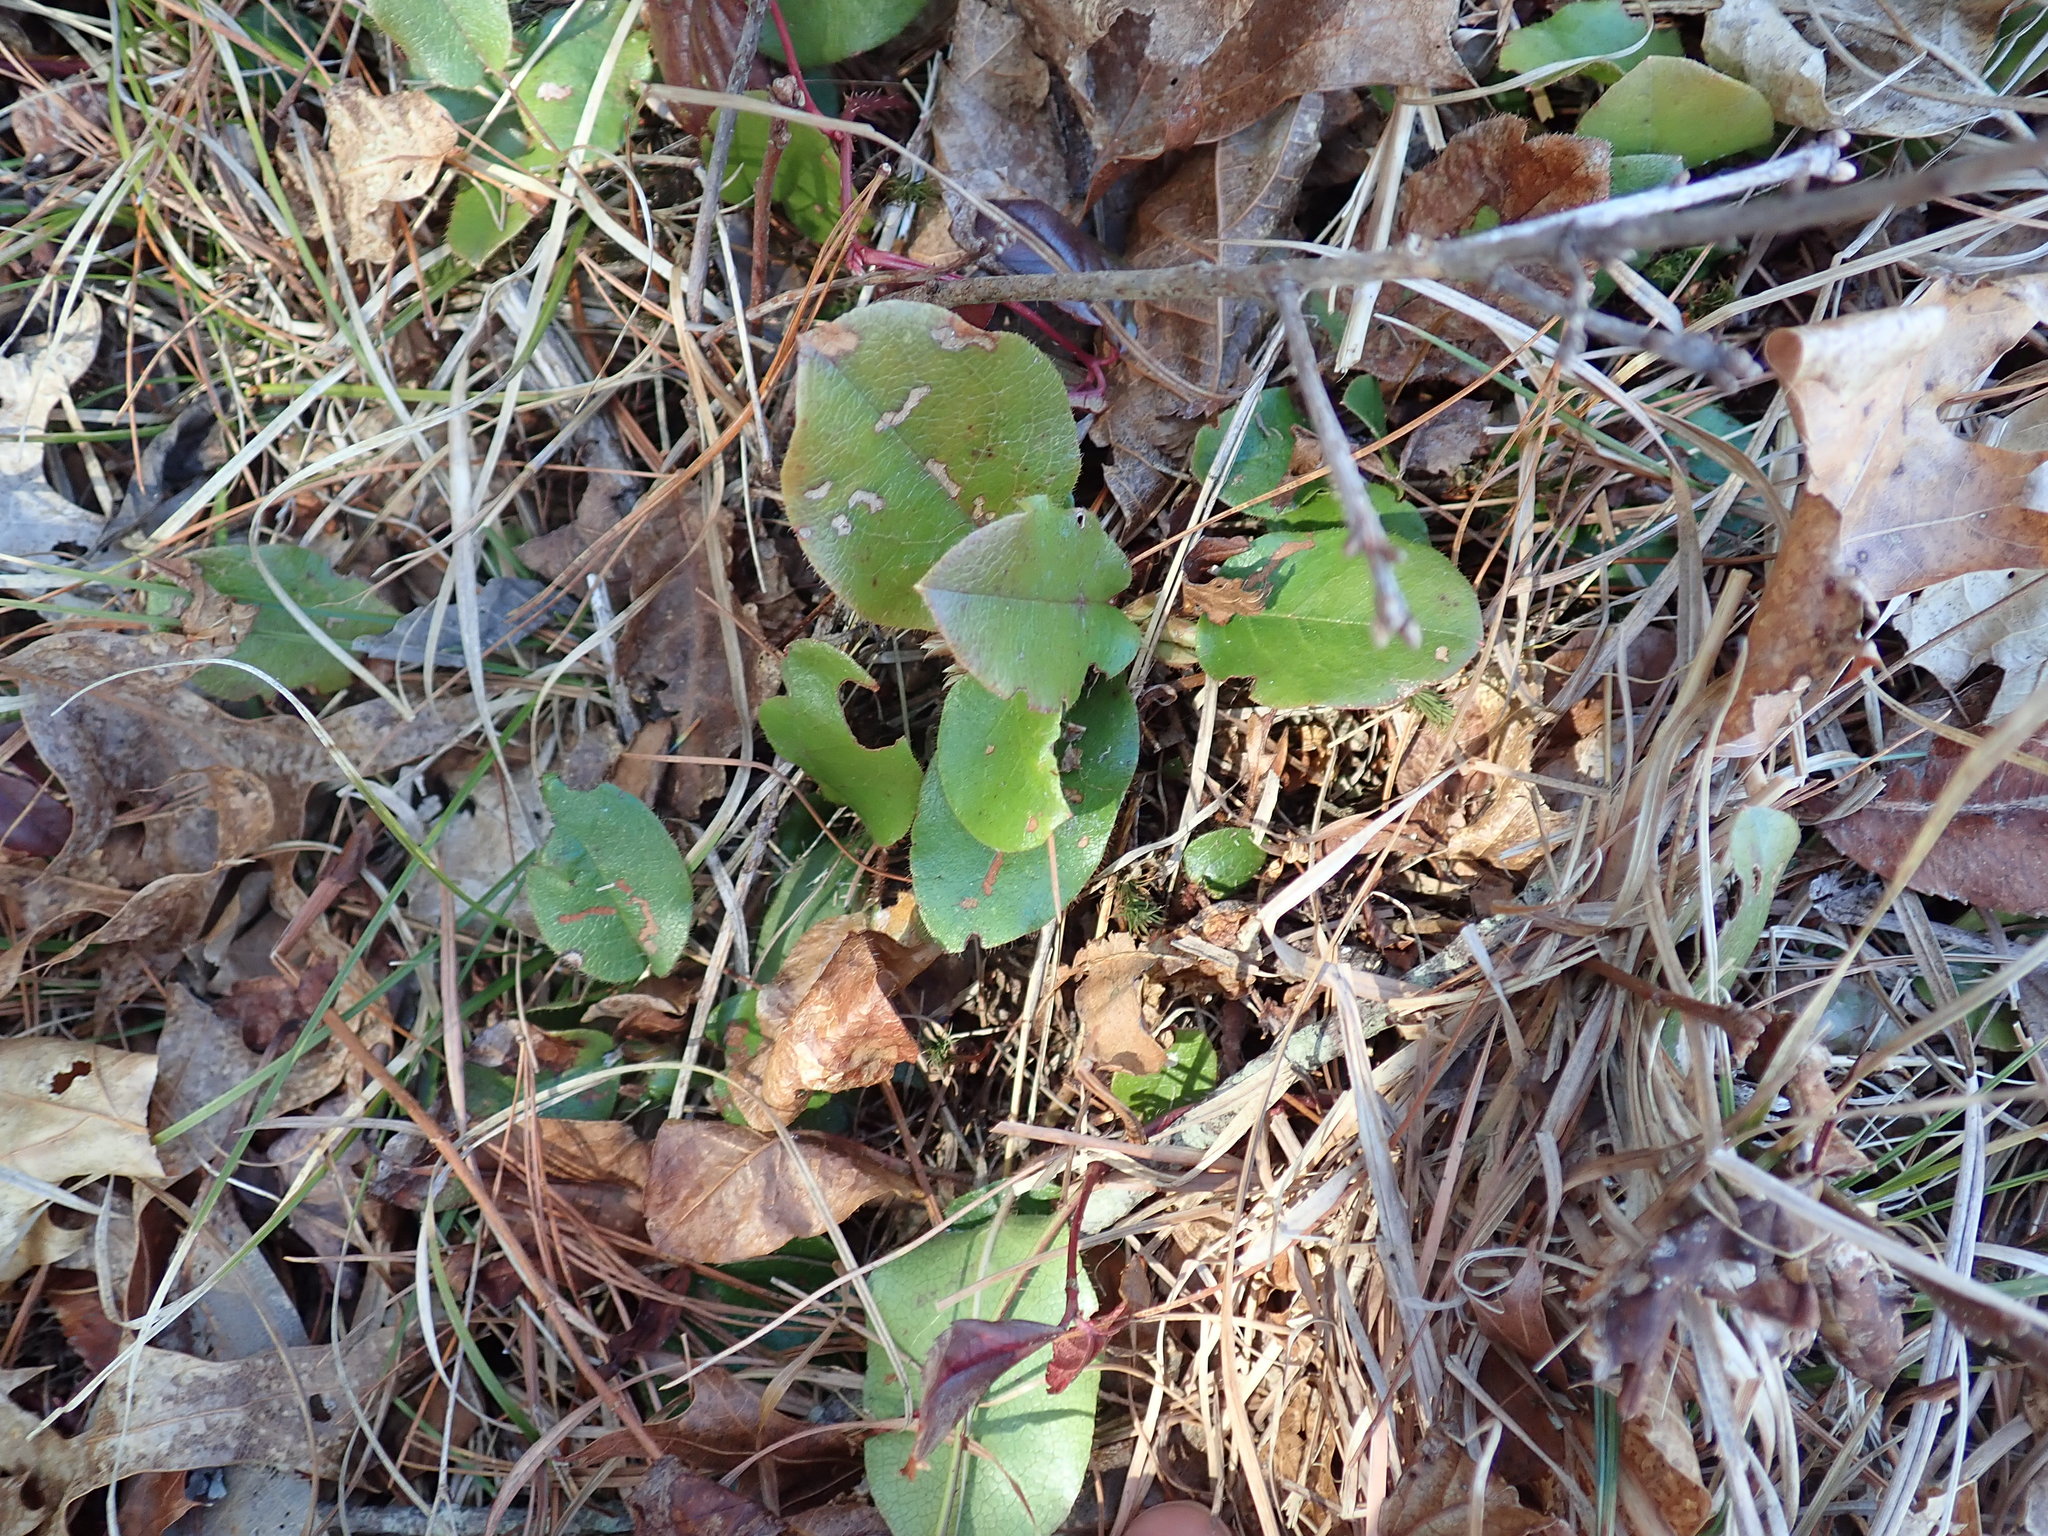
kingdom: Plantae
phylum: Tracheophyta
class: Magnoliopsida
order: Ericales
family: Ericaceae
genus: Epigaea
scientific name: Epigaea repens
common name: Gravelroot
